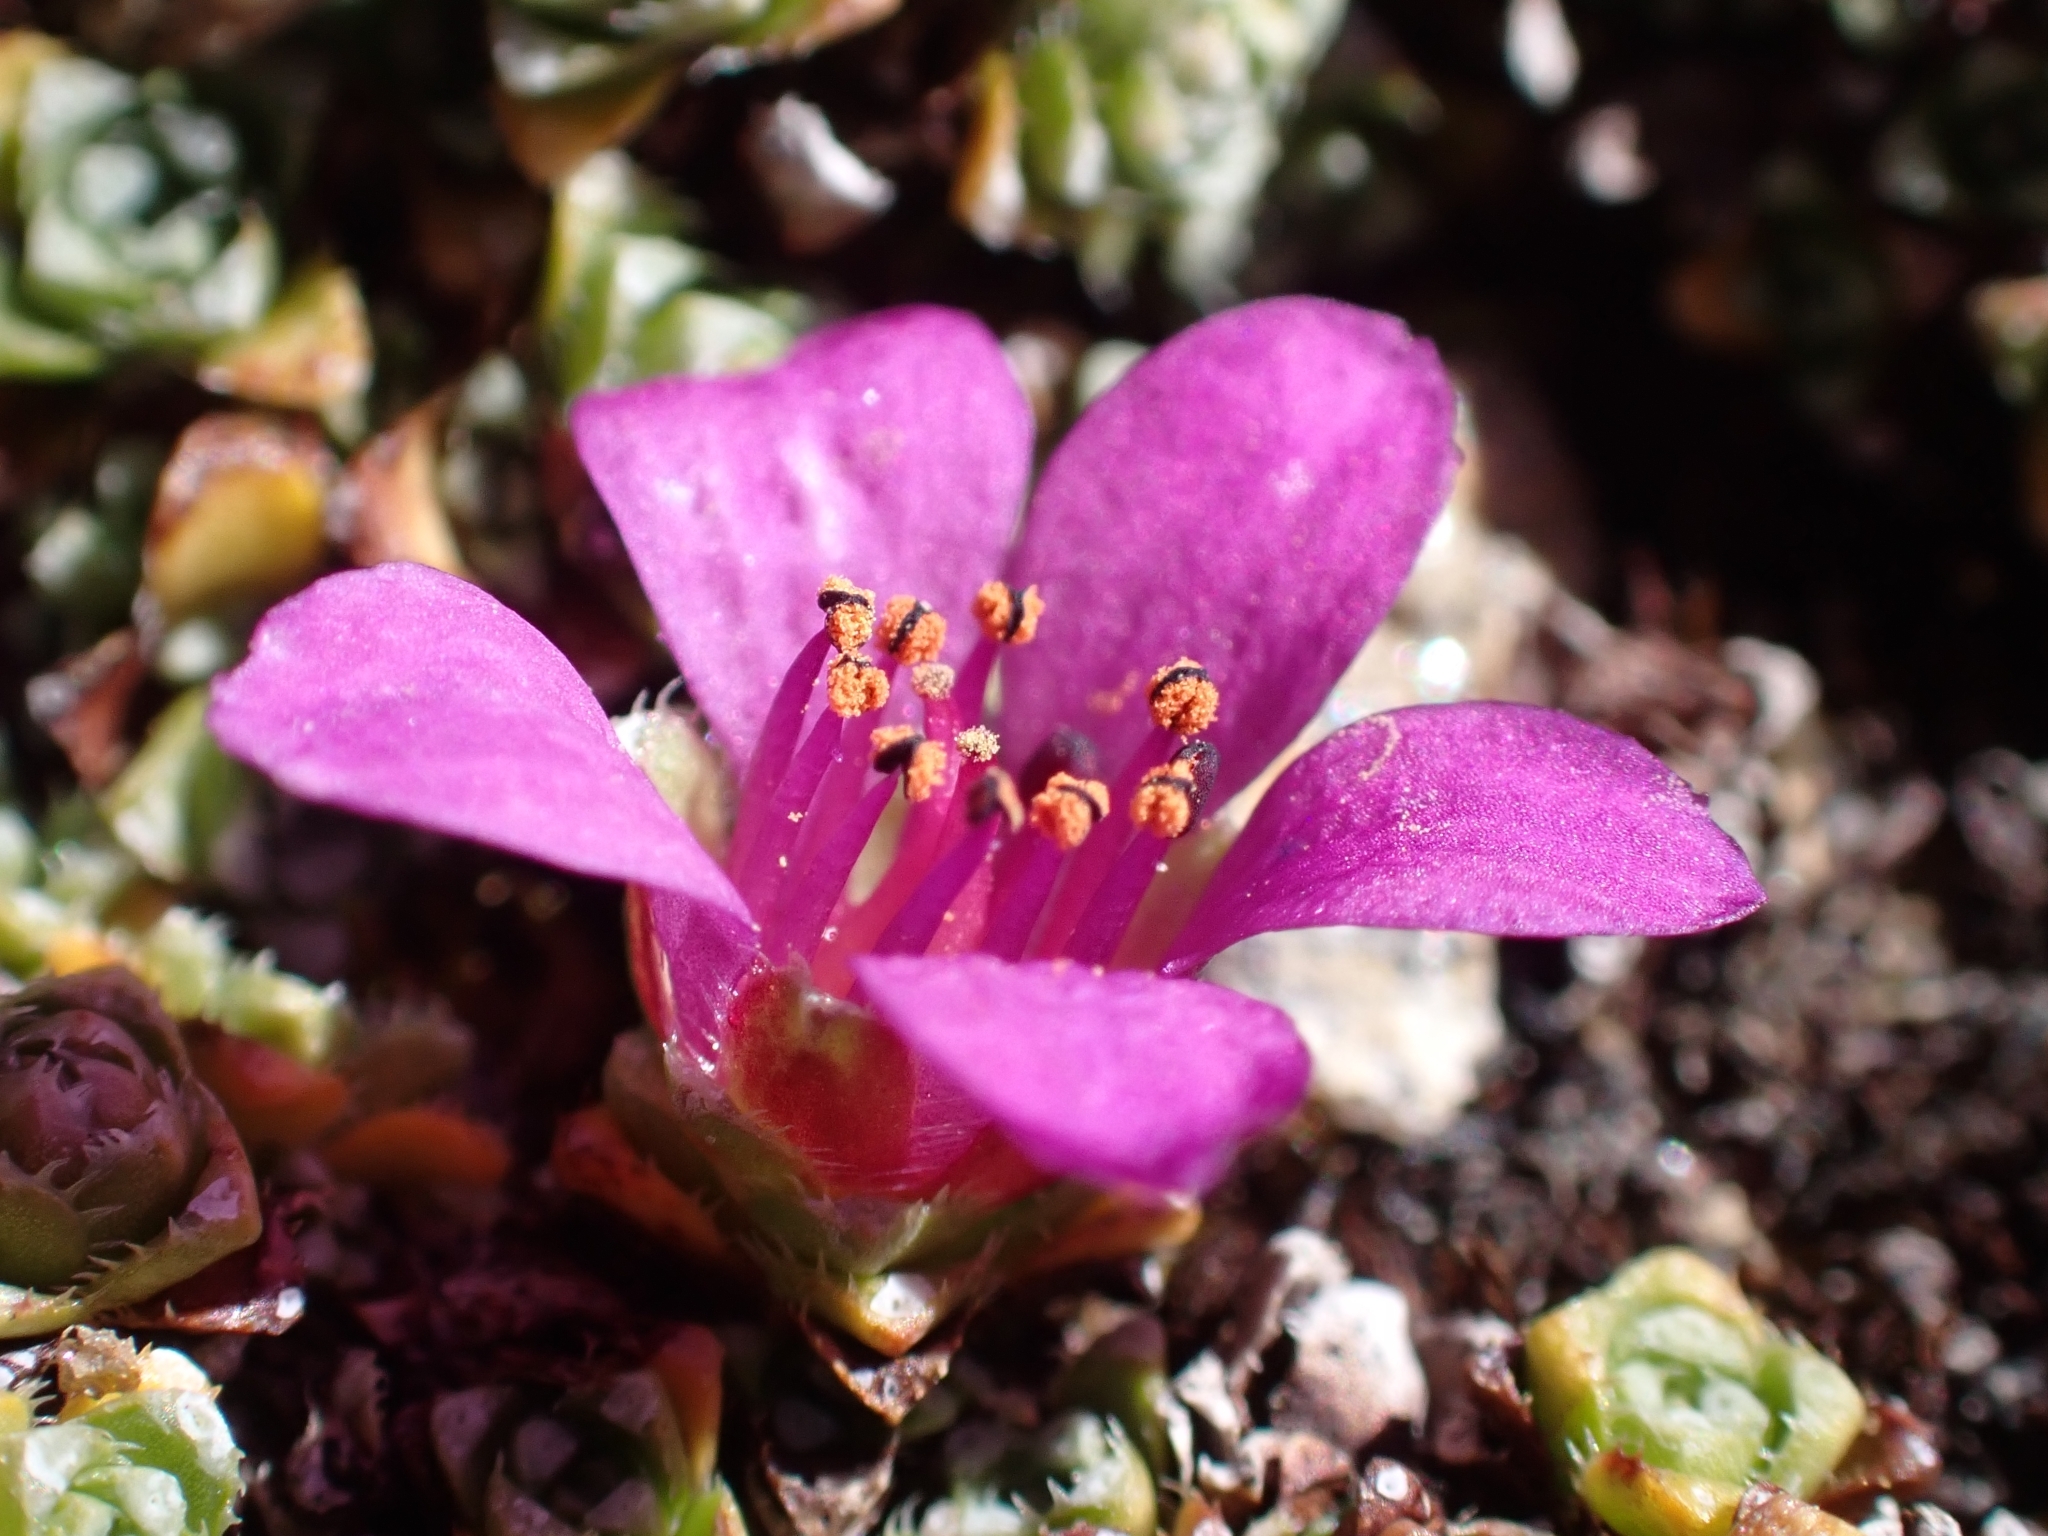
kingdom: Plantae
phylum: Tracheophyta
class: Magnoliopsida
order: Saxifragales
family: Saxifragaceae
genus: Saxifraga
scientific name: Saxifraga oppositifolia
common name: Purple saxifrage
